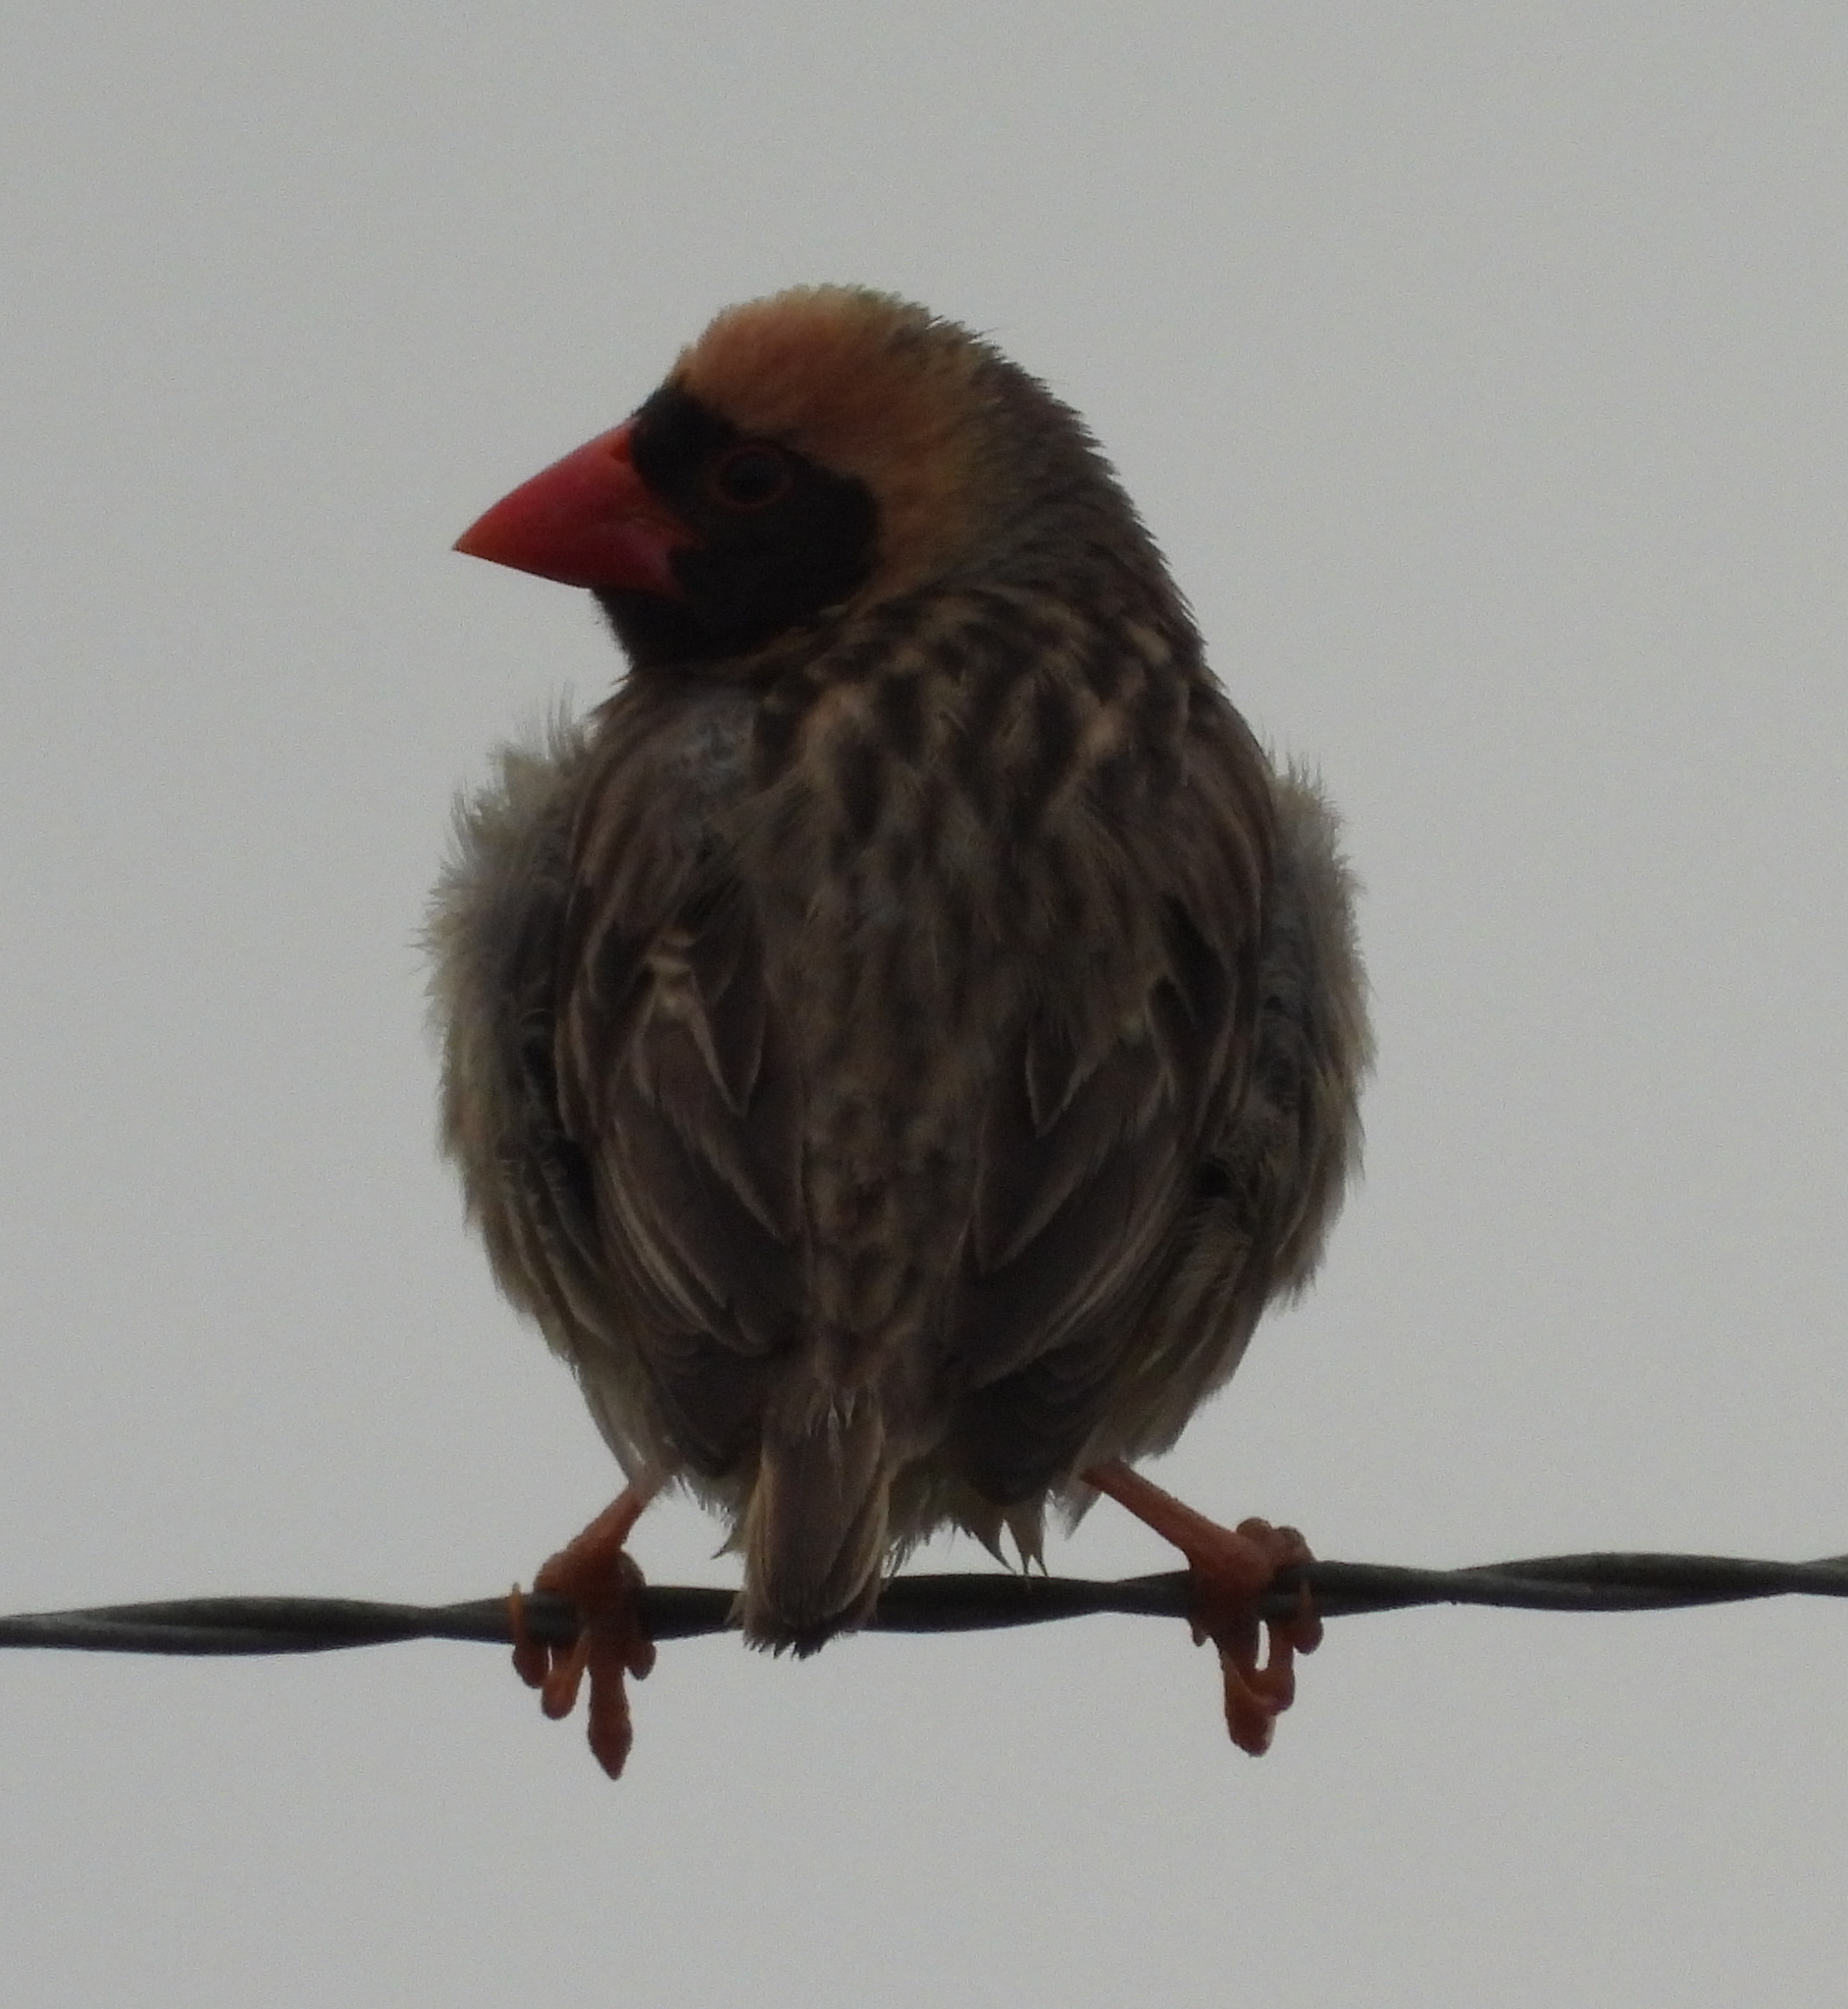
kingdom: Animalia
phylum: Chordata
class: Aves
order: Passeriformes
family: Ploceidae
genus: Quelea
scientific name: Quelea quelea
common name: Red-billed quelea
